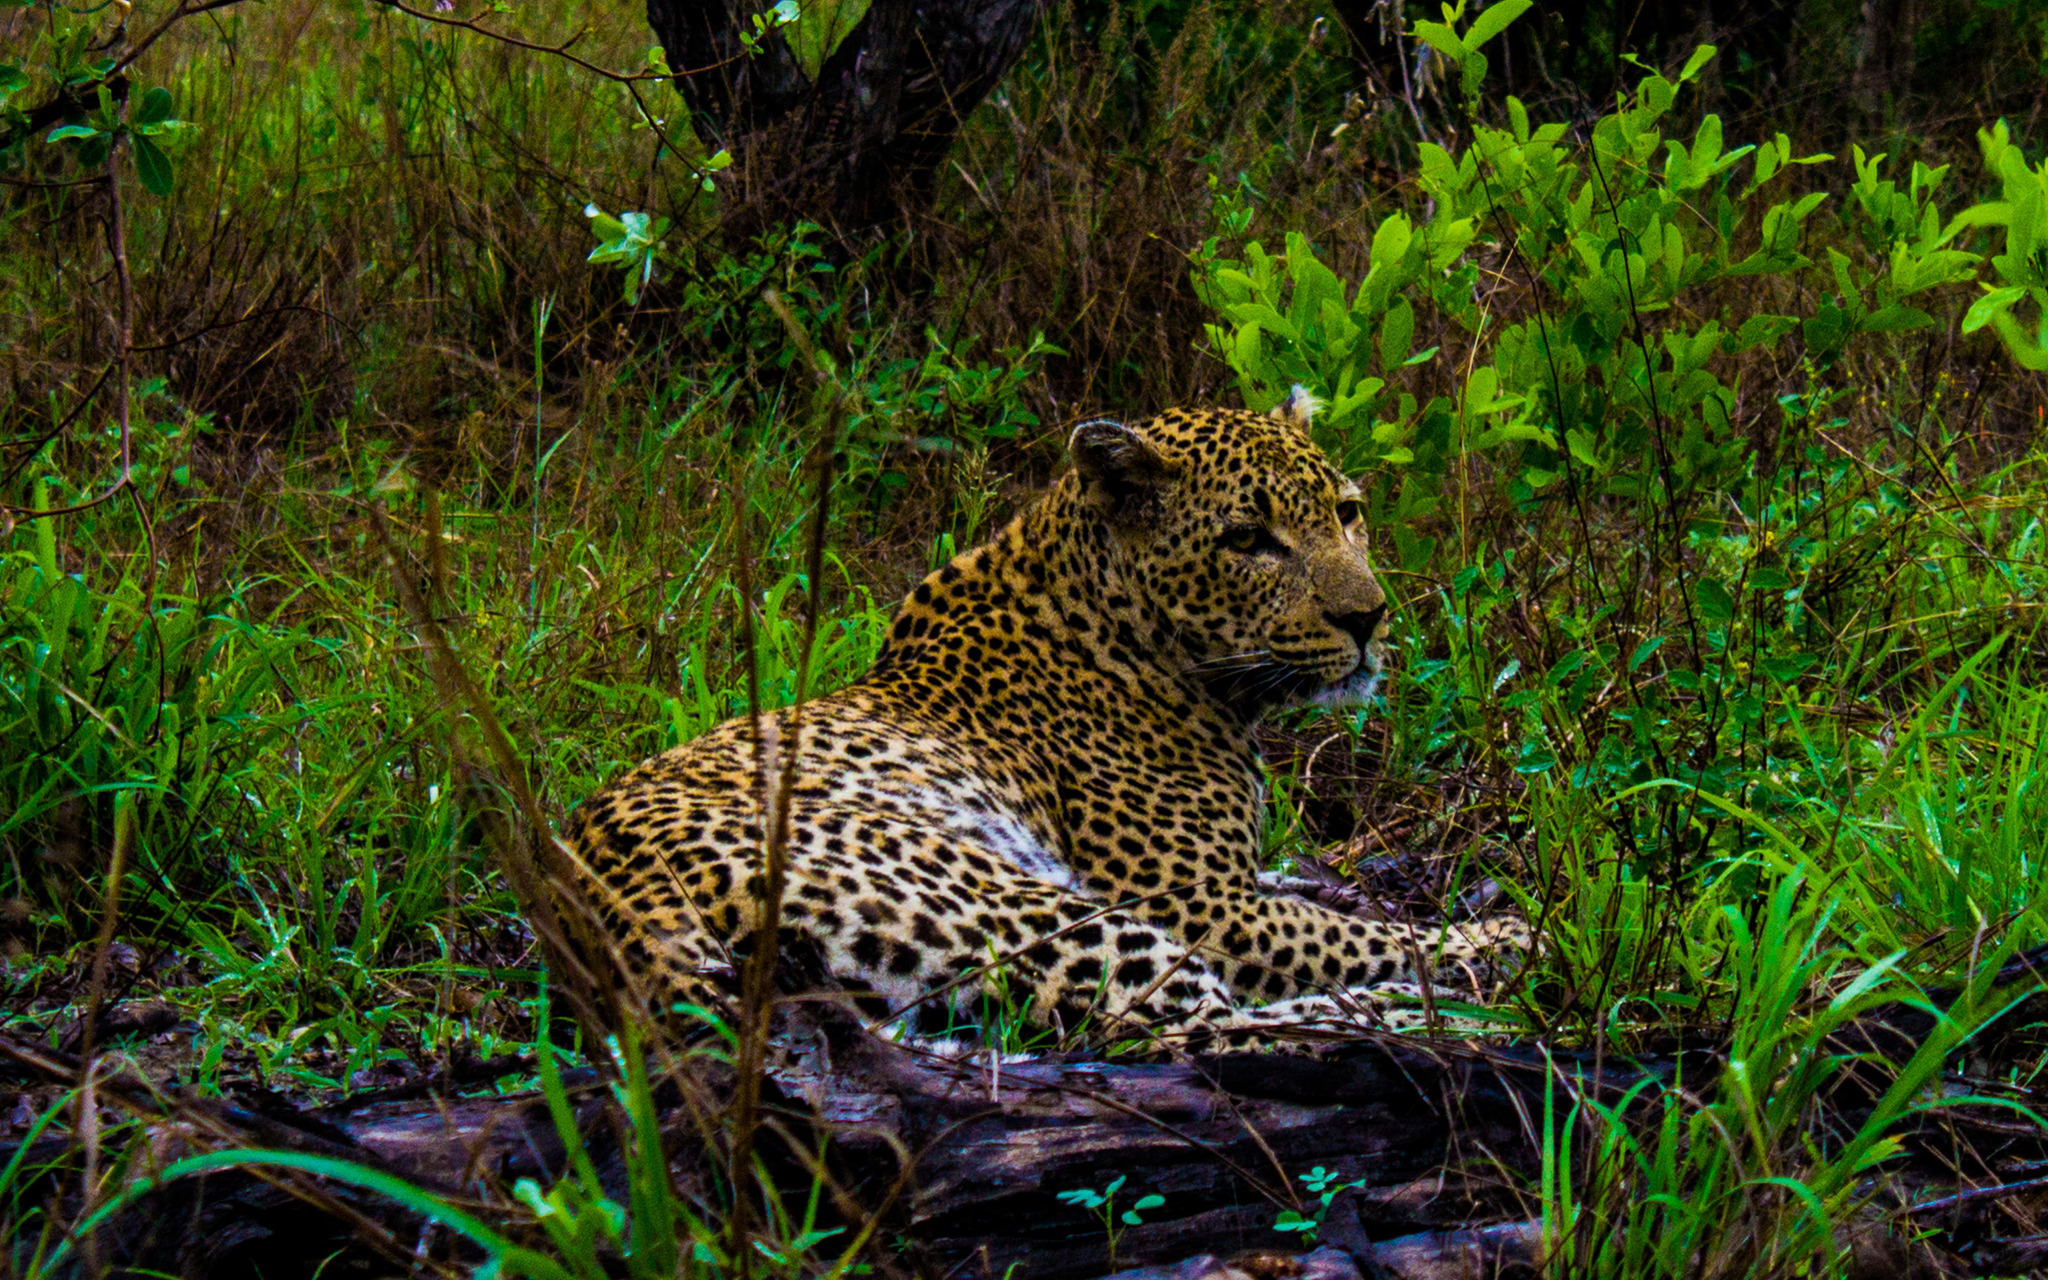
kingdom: Animalia
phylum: Chordata
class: Mammalia
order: Carnivora
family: Felidae
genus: Panthera
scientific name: Panthera pardus
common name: Leopard
